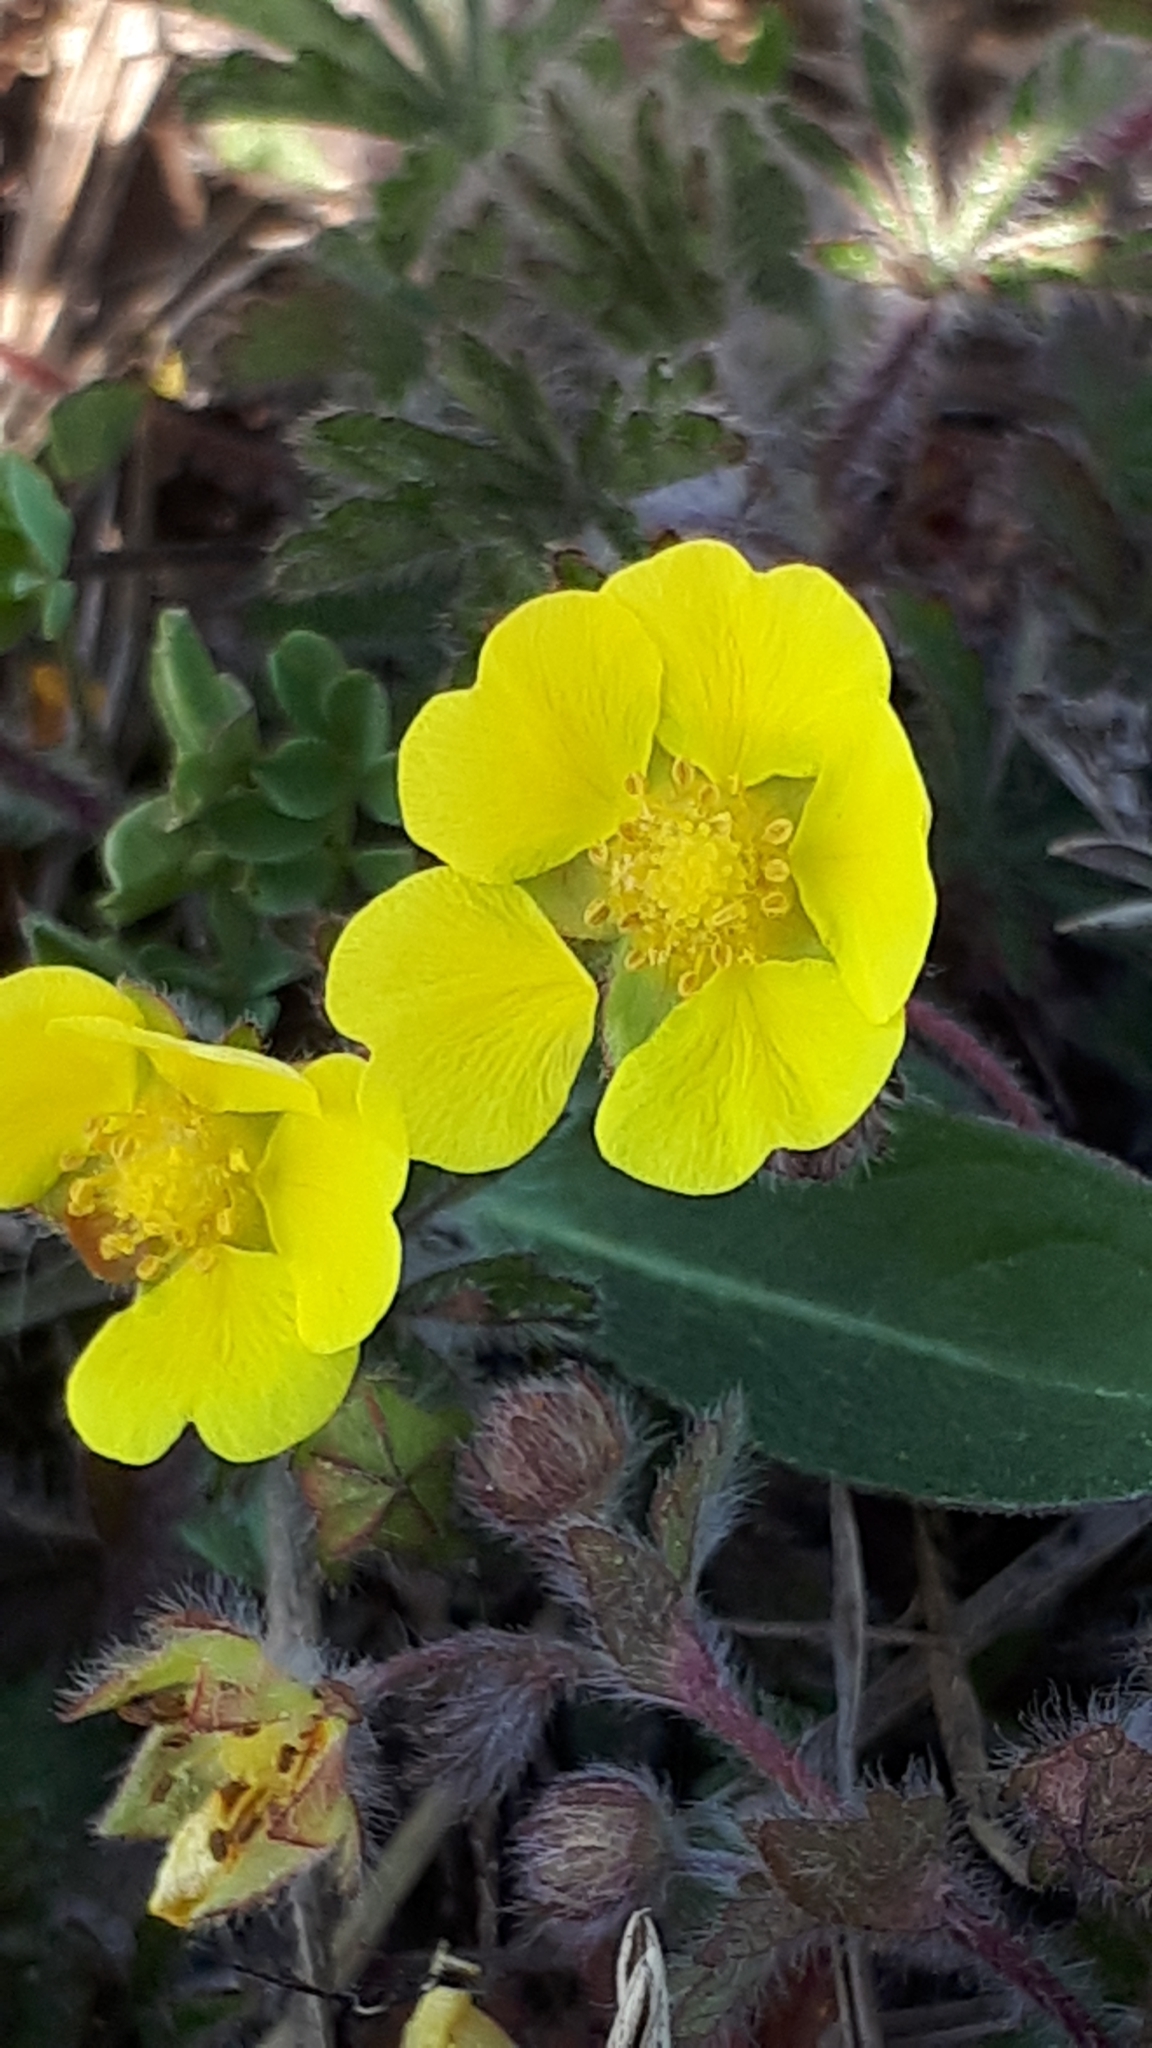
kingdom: Plantae
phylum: Tracheophyta
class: Magnoliopsida
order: Rosales
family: Rosaceae
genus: Potentilla
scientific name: Potentilla heptaphylla
